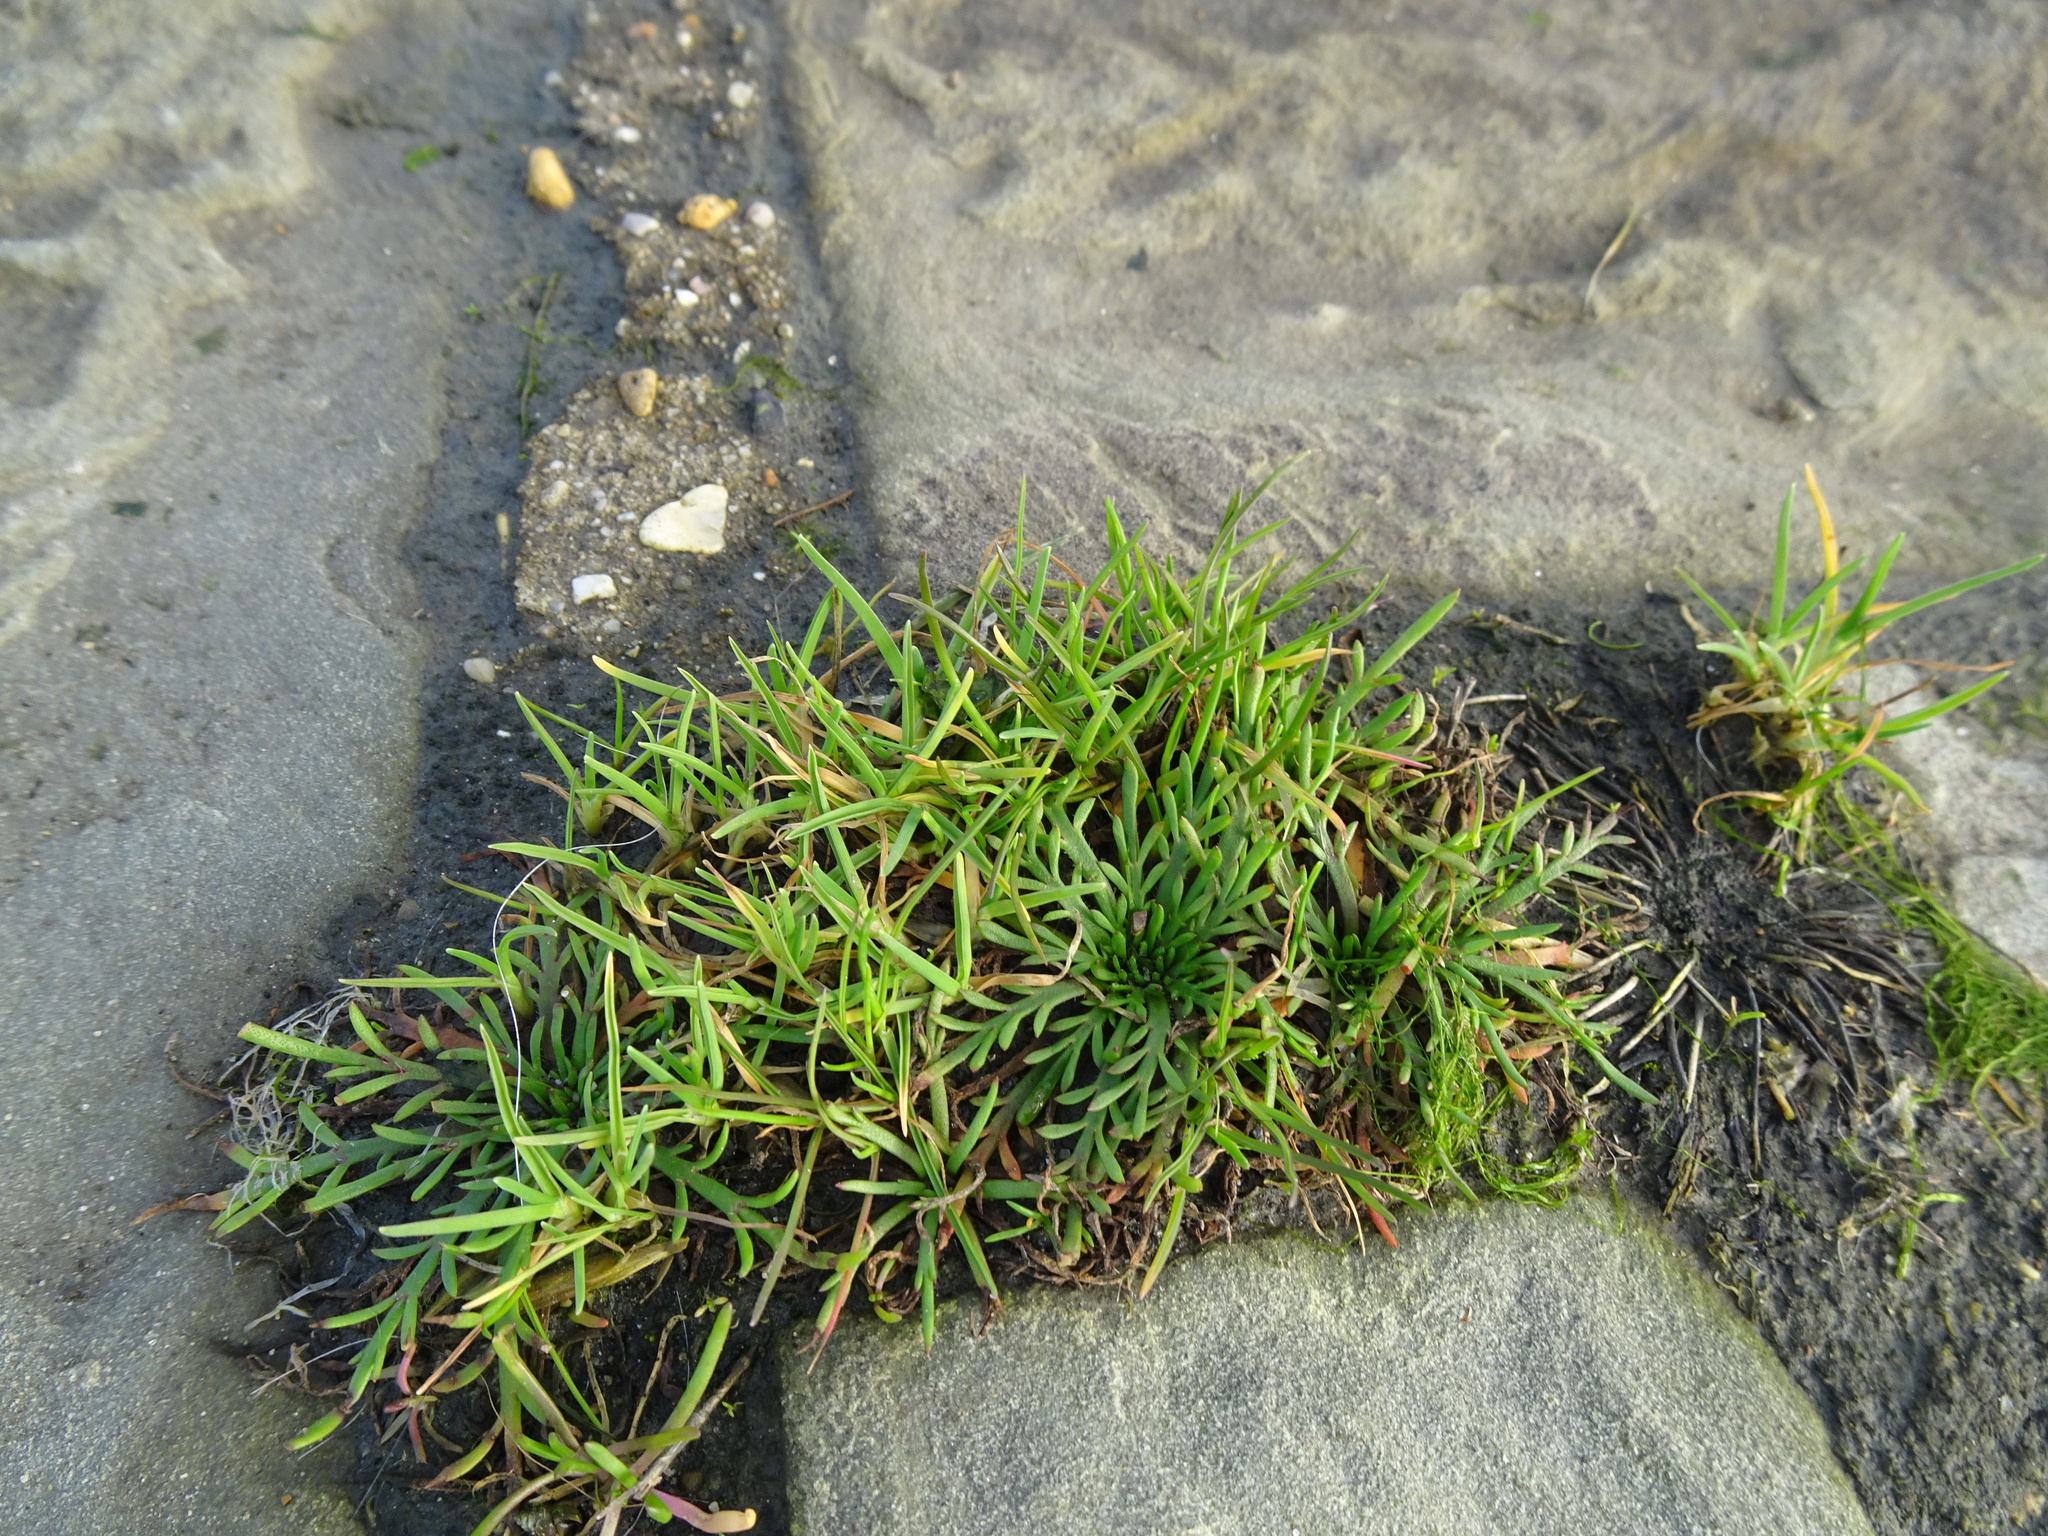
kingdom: Plantae
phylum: Tracheophyta
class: Magnoliopsida
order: Lamiales
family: Plantaginaceae
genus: Plantago
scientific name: Plantago coronopus
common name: Buck's-horn plantain
